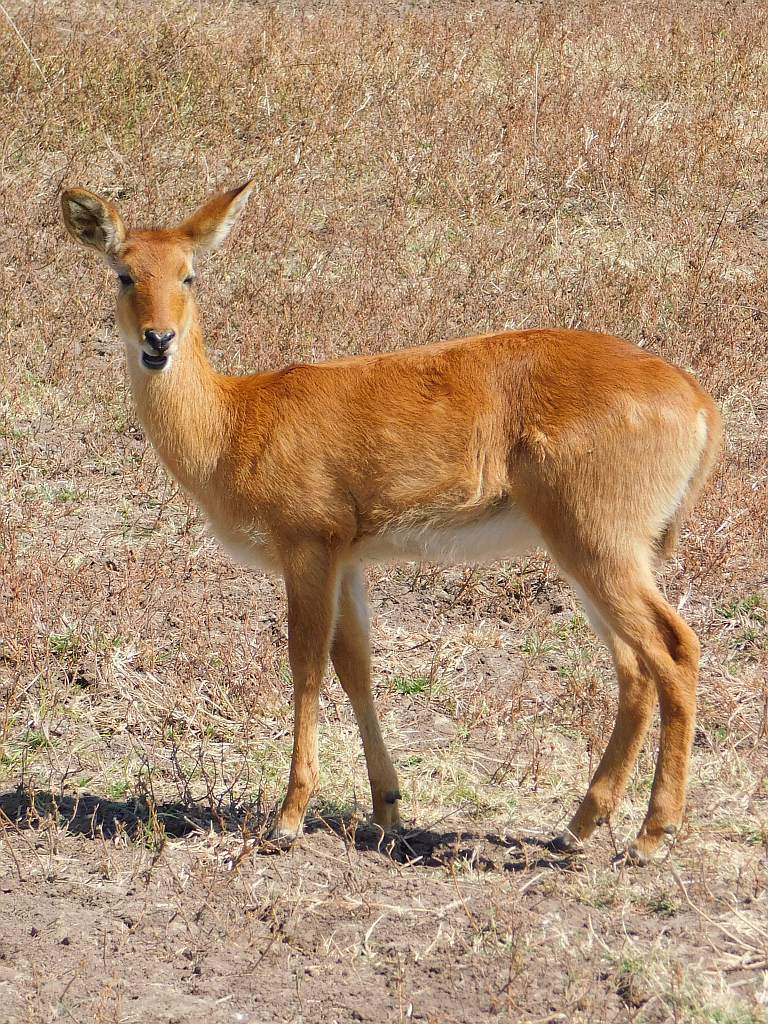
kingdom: Animalia
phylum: Chordata
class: Mammalia
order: Artiodactyla
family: Bovidae
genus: Kobus
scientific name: Kobus vardonii
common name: Puku
